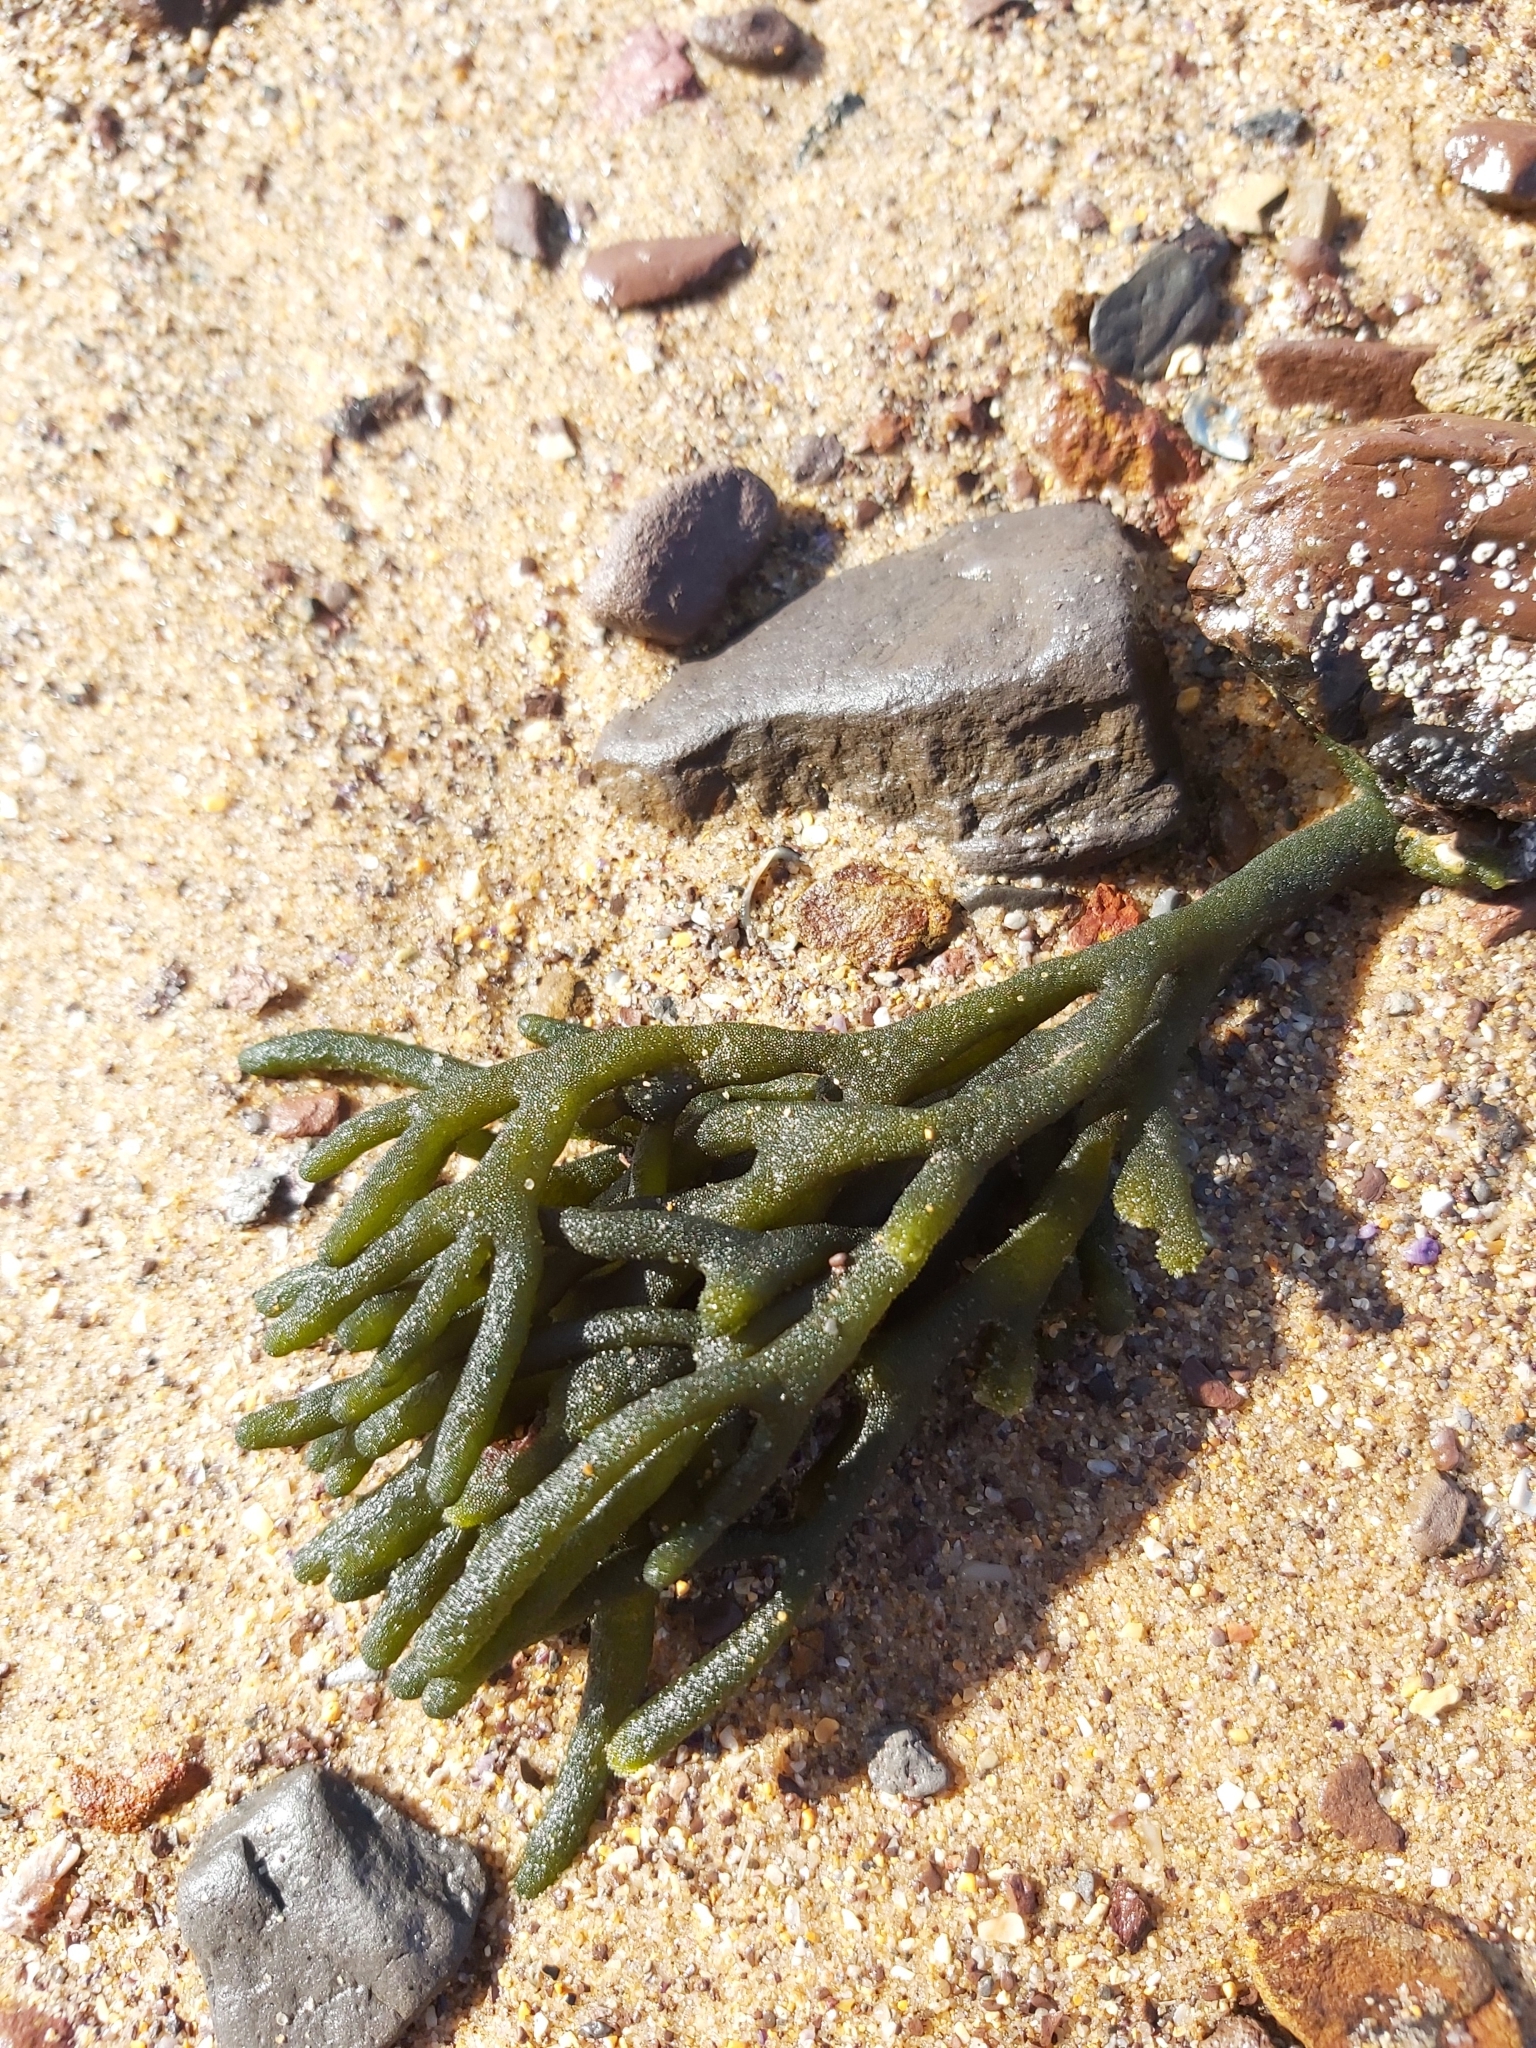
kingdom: Plantae
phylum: Chlorophyta
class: Ulvophyceae
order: Bryopsidales
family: Codiaceae
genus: Codium
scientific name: Codium fragile
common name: Dead man's fingers
